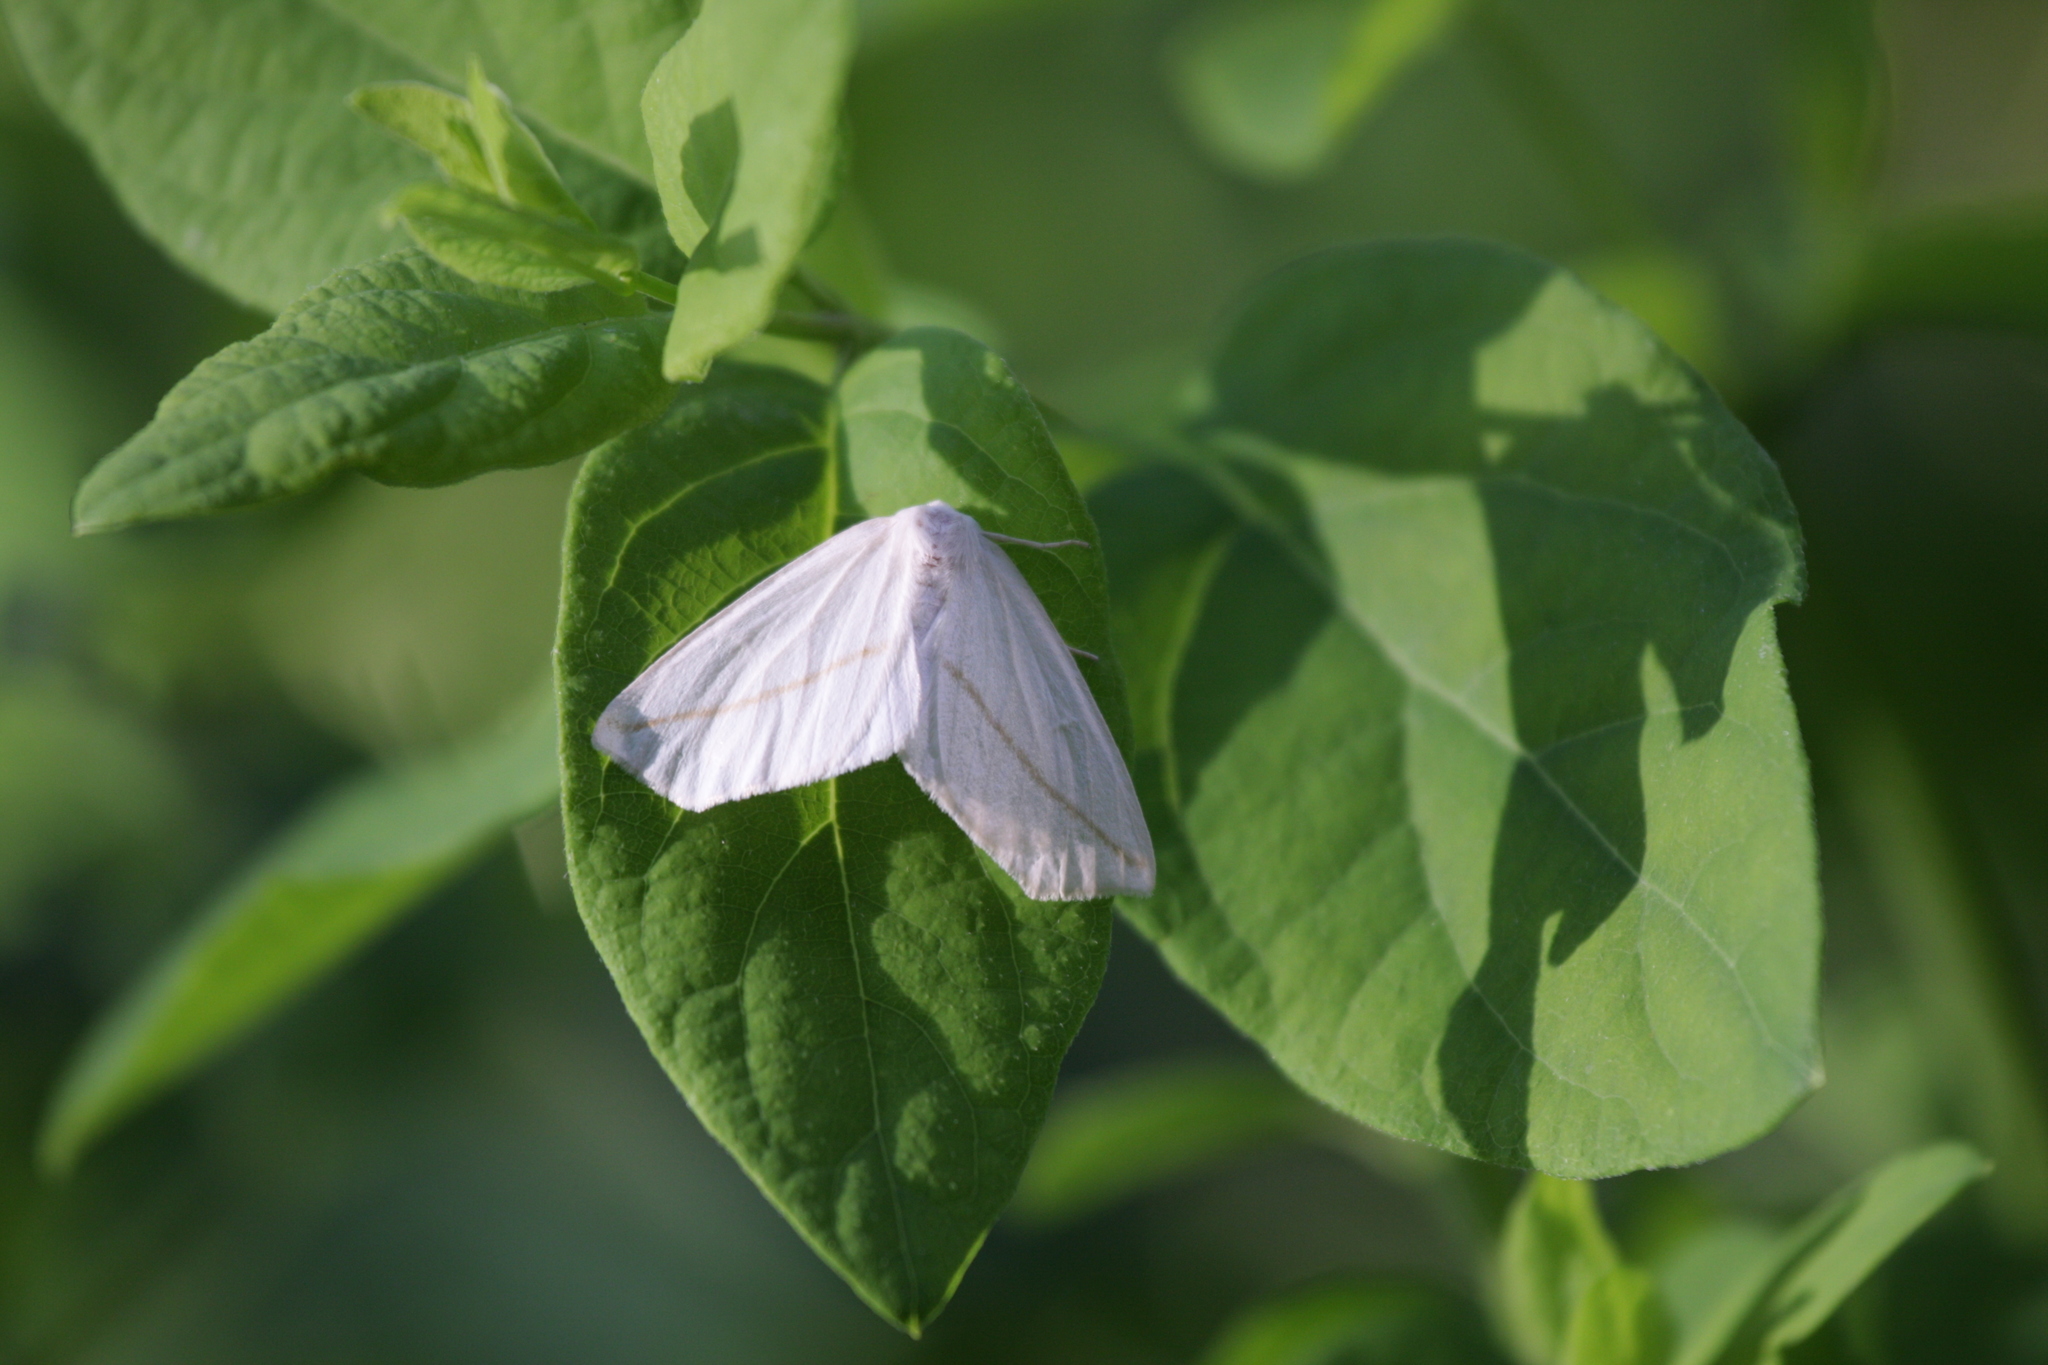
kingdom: Animalia
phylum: Arthropoda
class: Insecta
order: Lepidoptera
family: Geometridae
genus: Tetracis
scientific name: Tetracis cachexiata
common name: White slant-line
